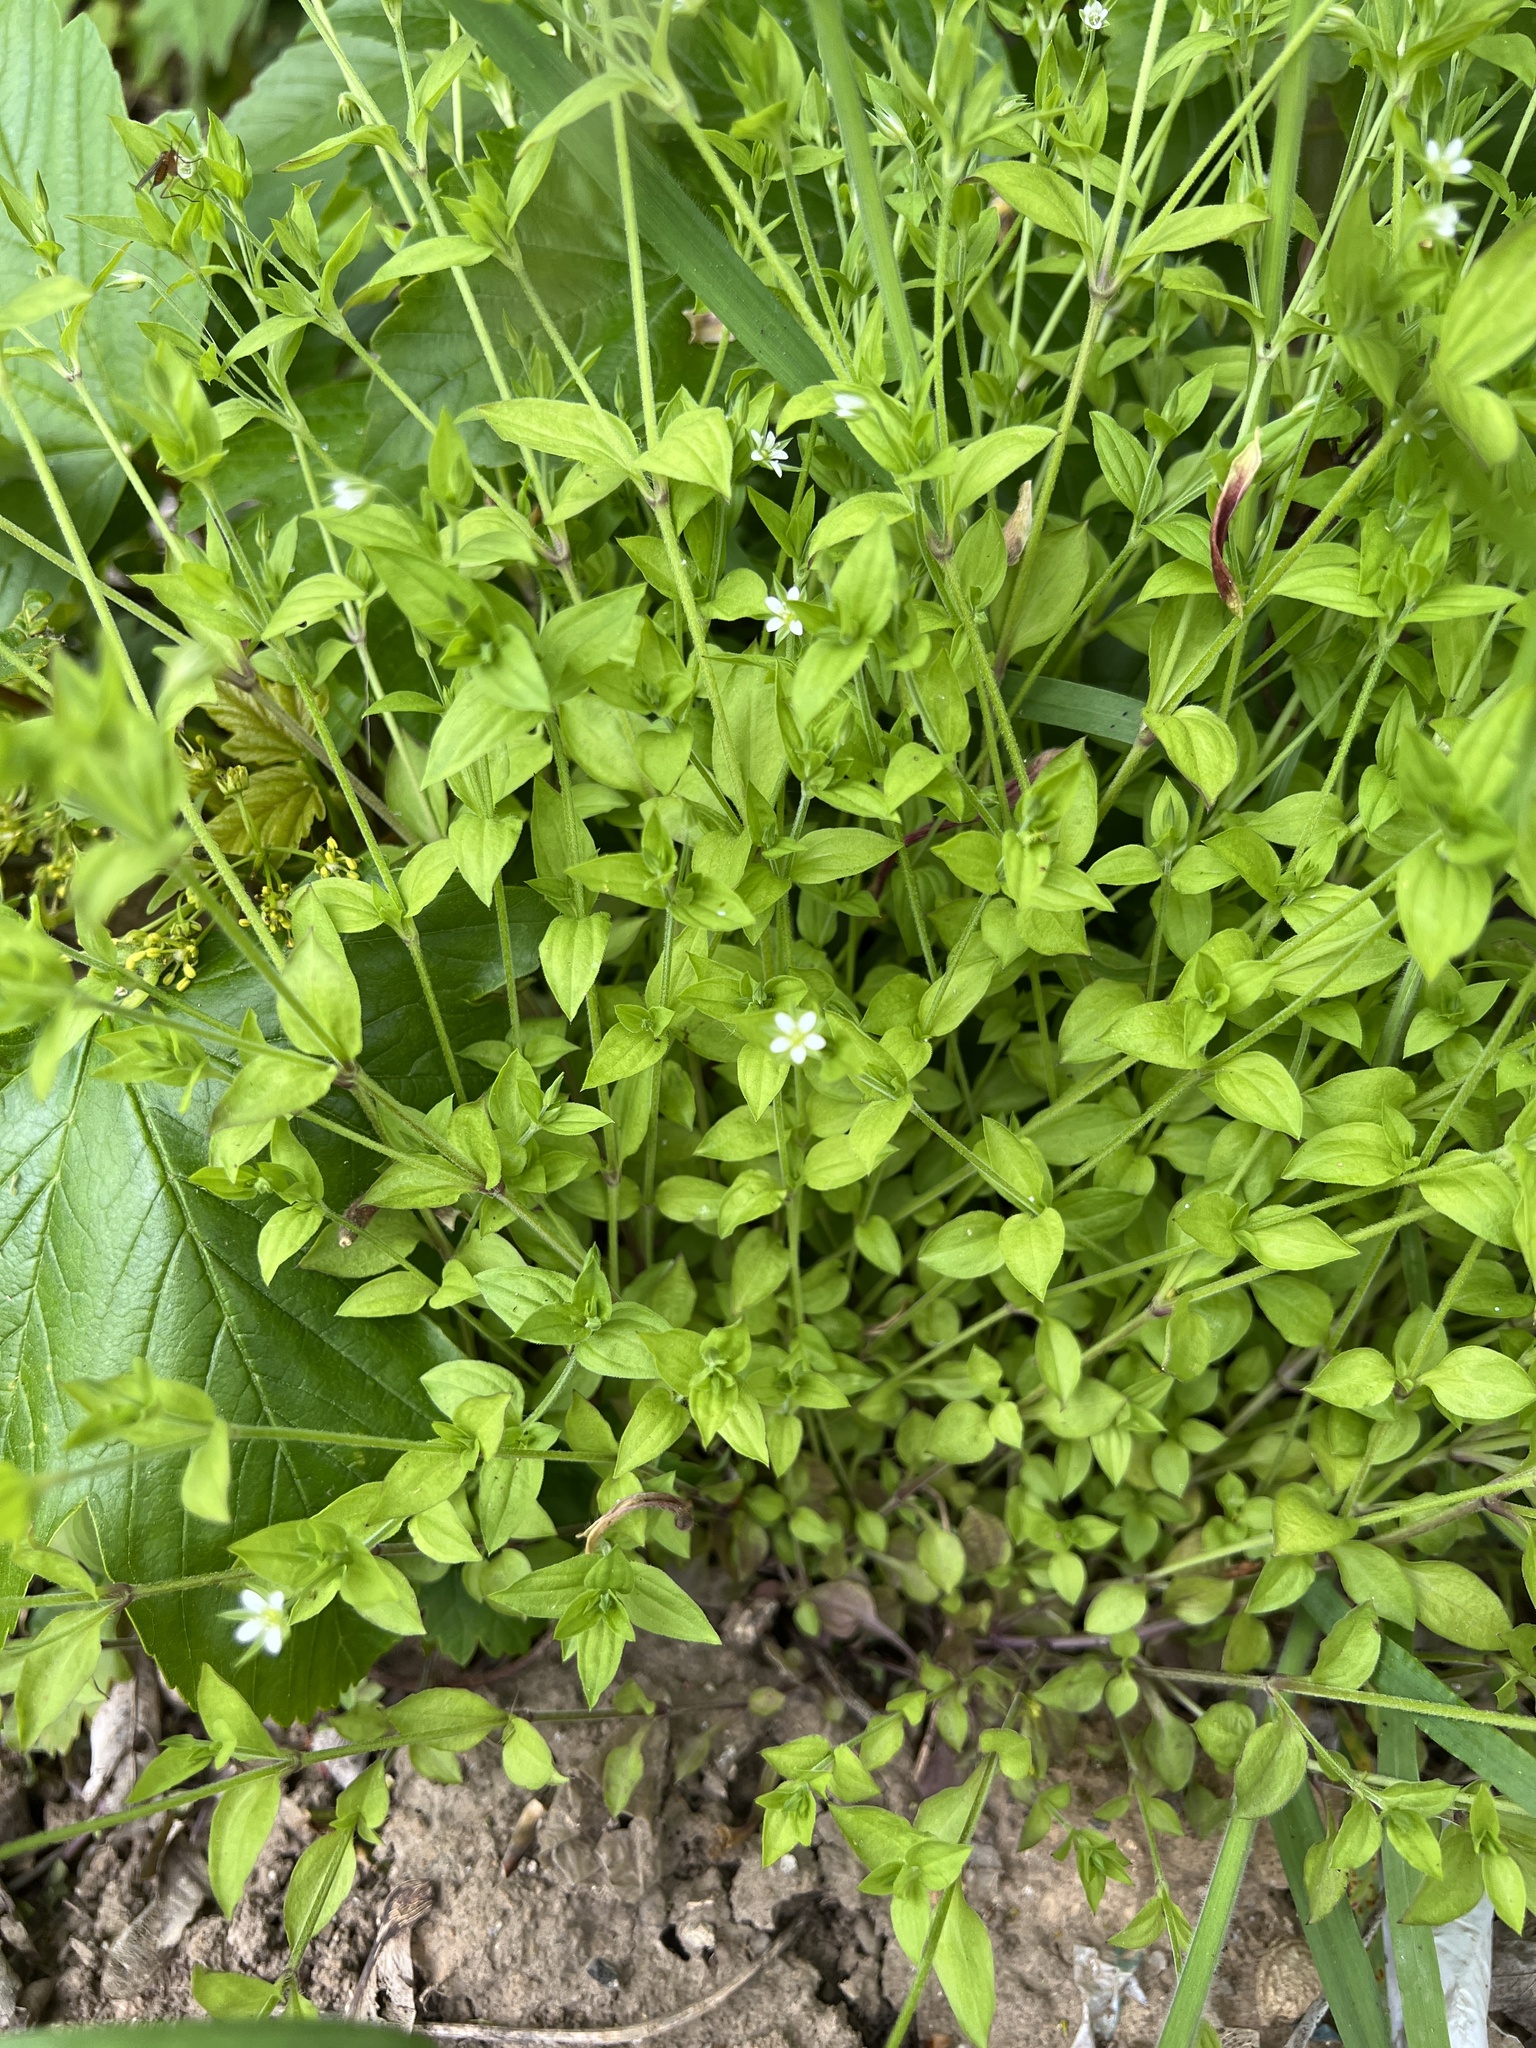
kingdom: Plantae
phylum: Tracheophyta
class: Magnoliopsida
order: Caryophyllales
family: Caryophyllaceae
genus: Moehringia
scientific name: Moehringia trinervia
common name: Three-nerved sandwort
